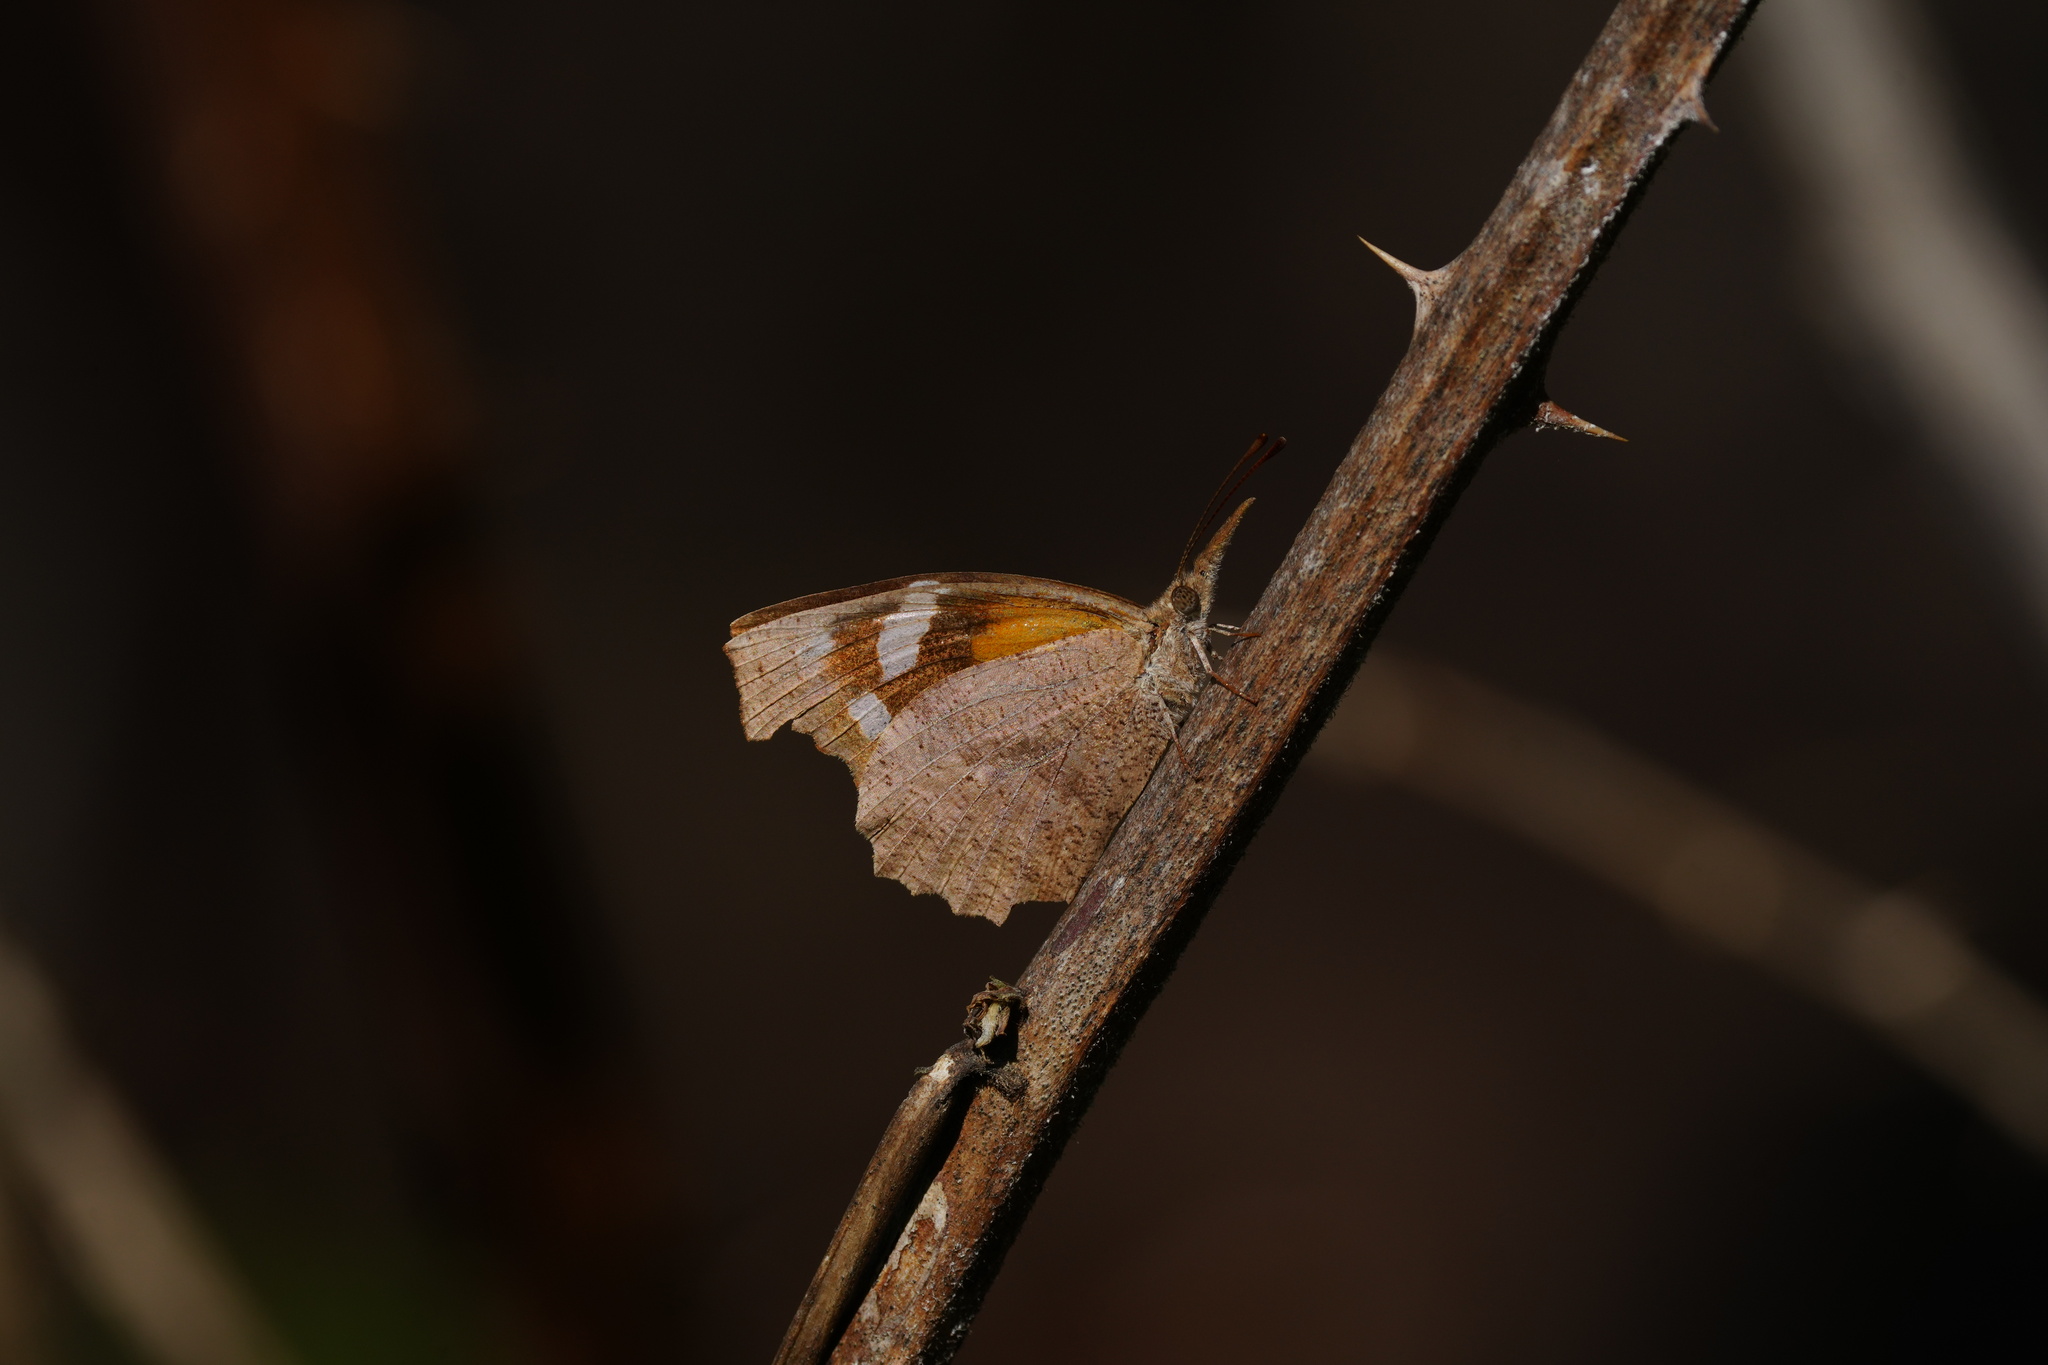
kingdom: Animalia
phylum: Arthropoda
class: Insecta
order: Lepidoptera
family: Nymphalidae
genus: Libytheana
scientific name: Libytheana carinenta
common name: American snout
